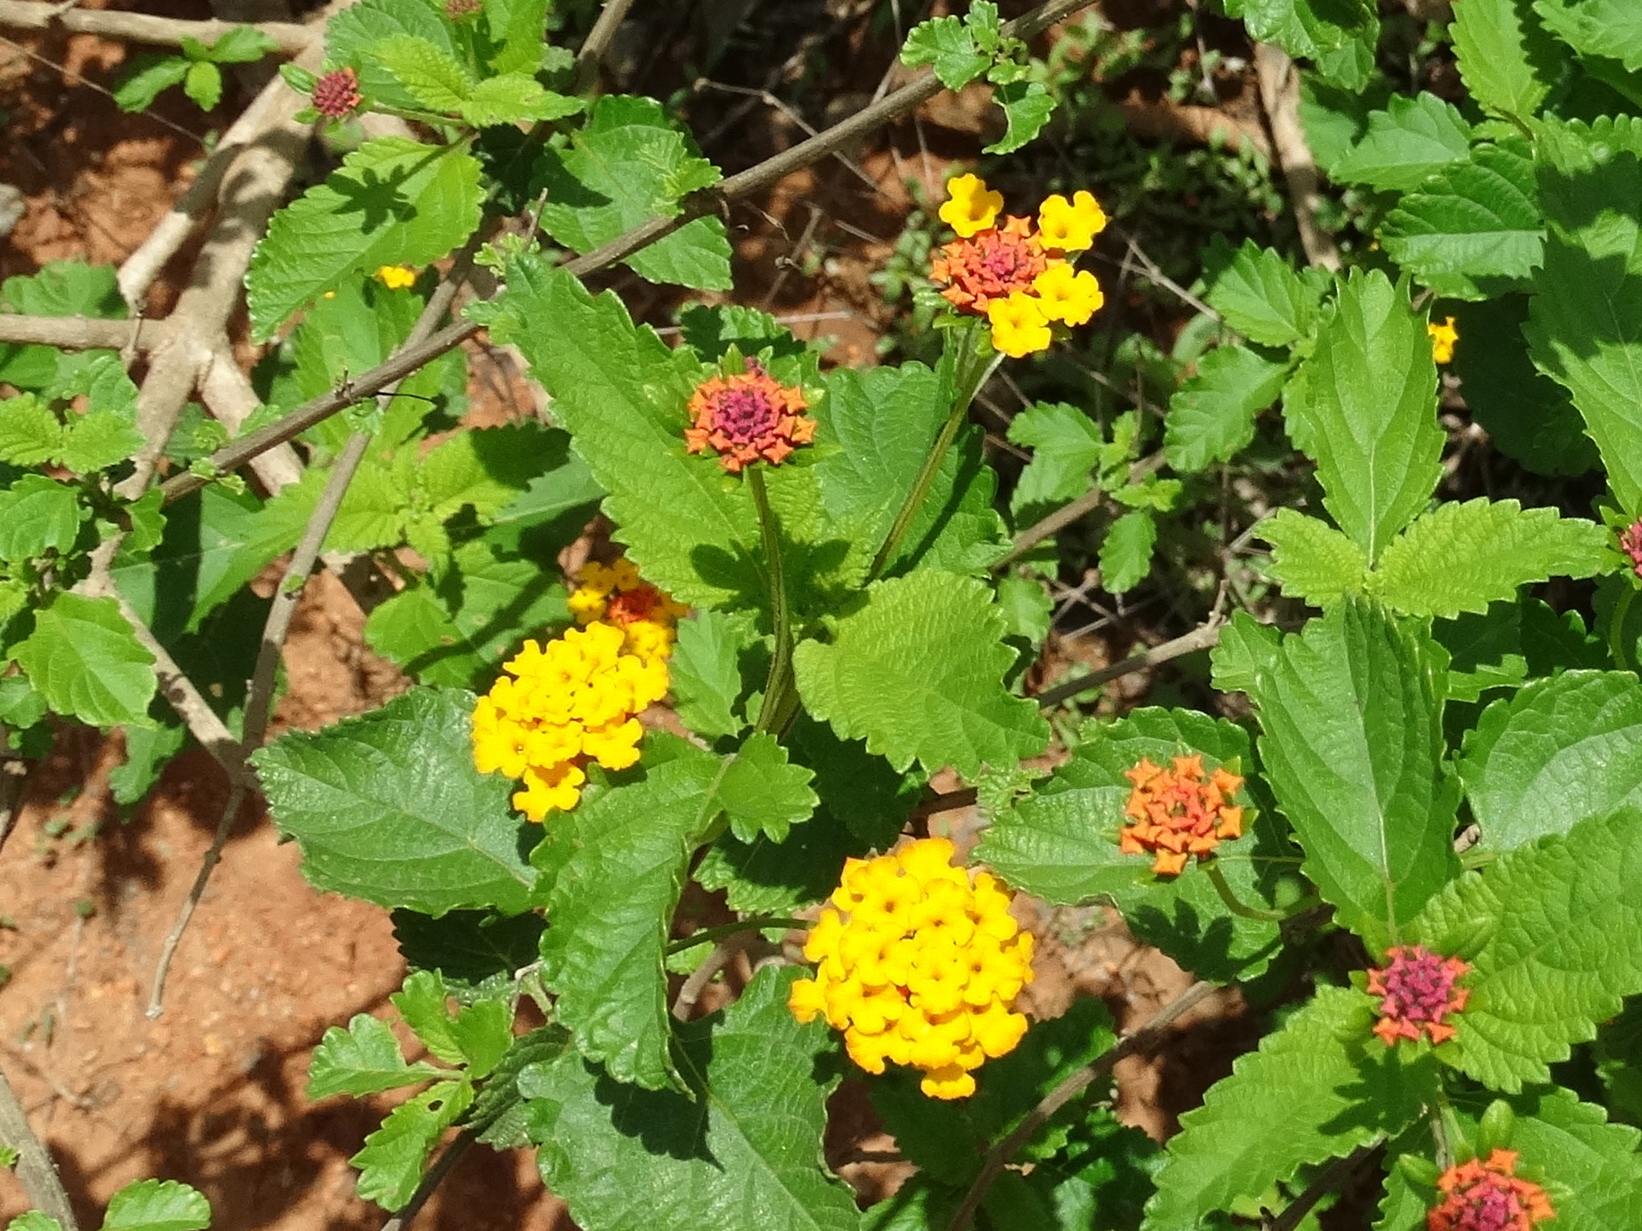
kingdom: Plantae
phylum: Tracheophyta
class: Magnoliopsida
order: Lamiales
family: Verbenaceae
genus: Lantana
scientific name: Lantana camara
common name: Lantana
